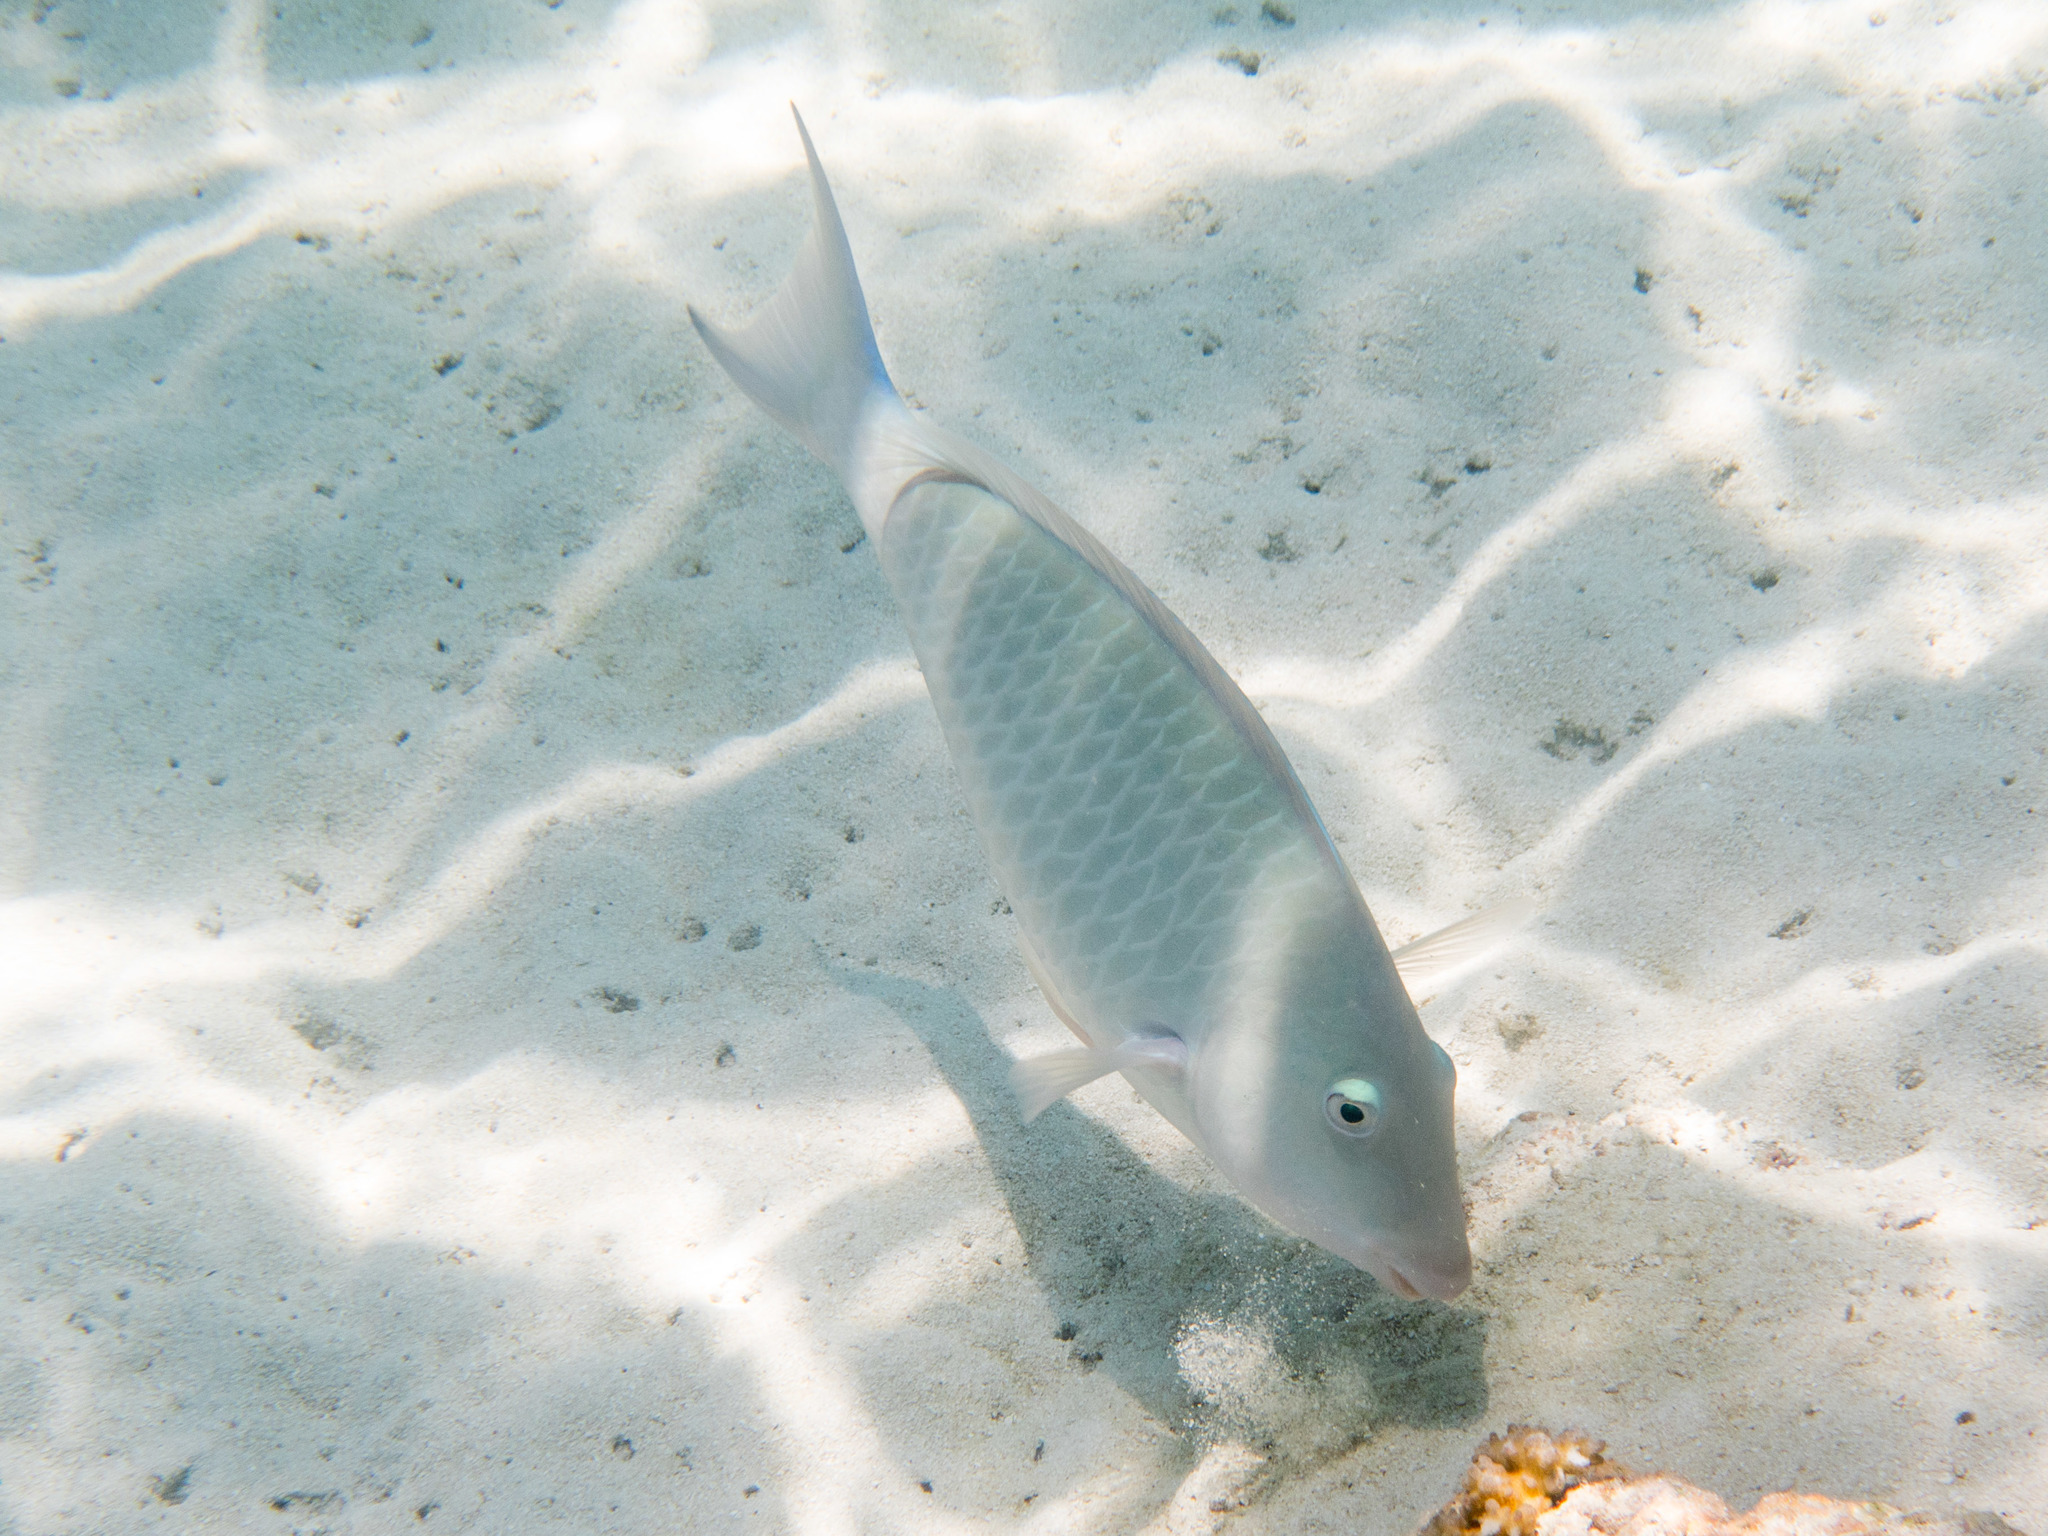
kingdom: Animalia
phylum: Chordata
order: Perciformes
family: Scaridae
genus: Hipposcarus
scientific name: Hipposcarus harid
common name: Candelamoa parrotfish
